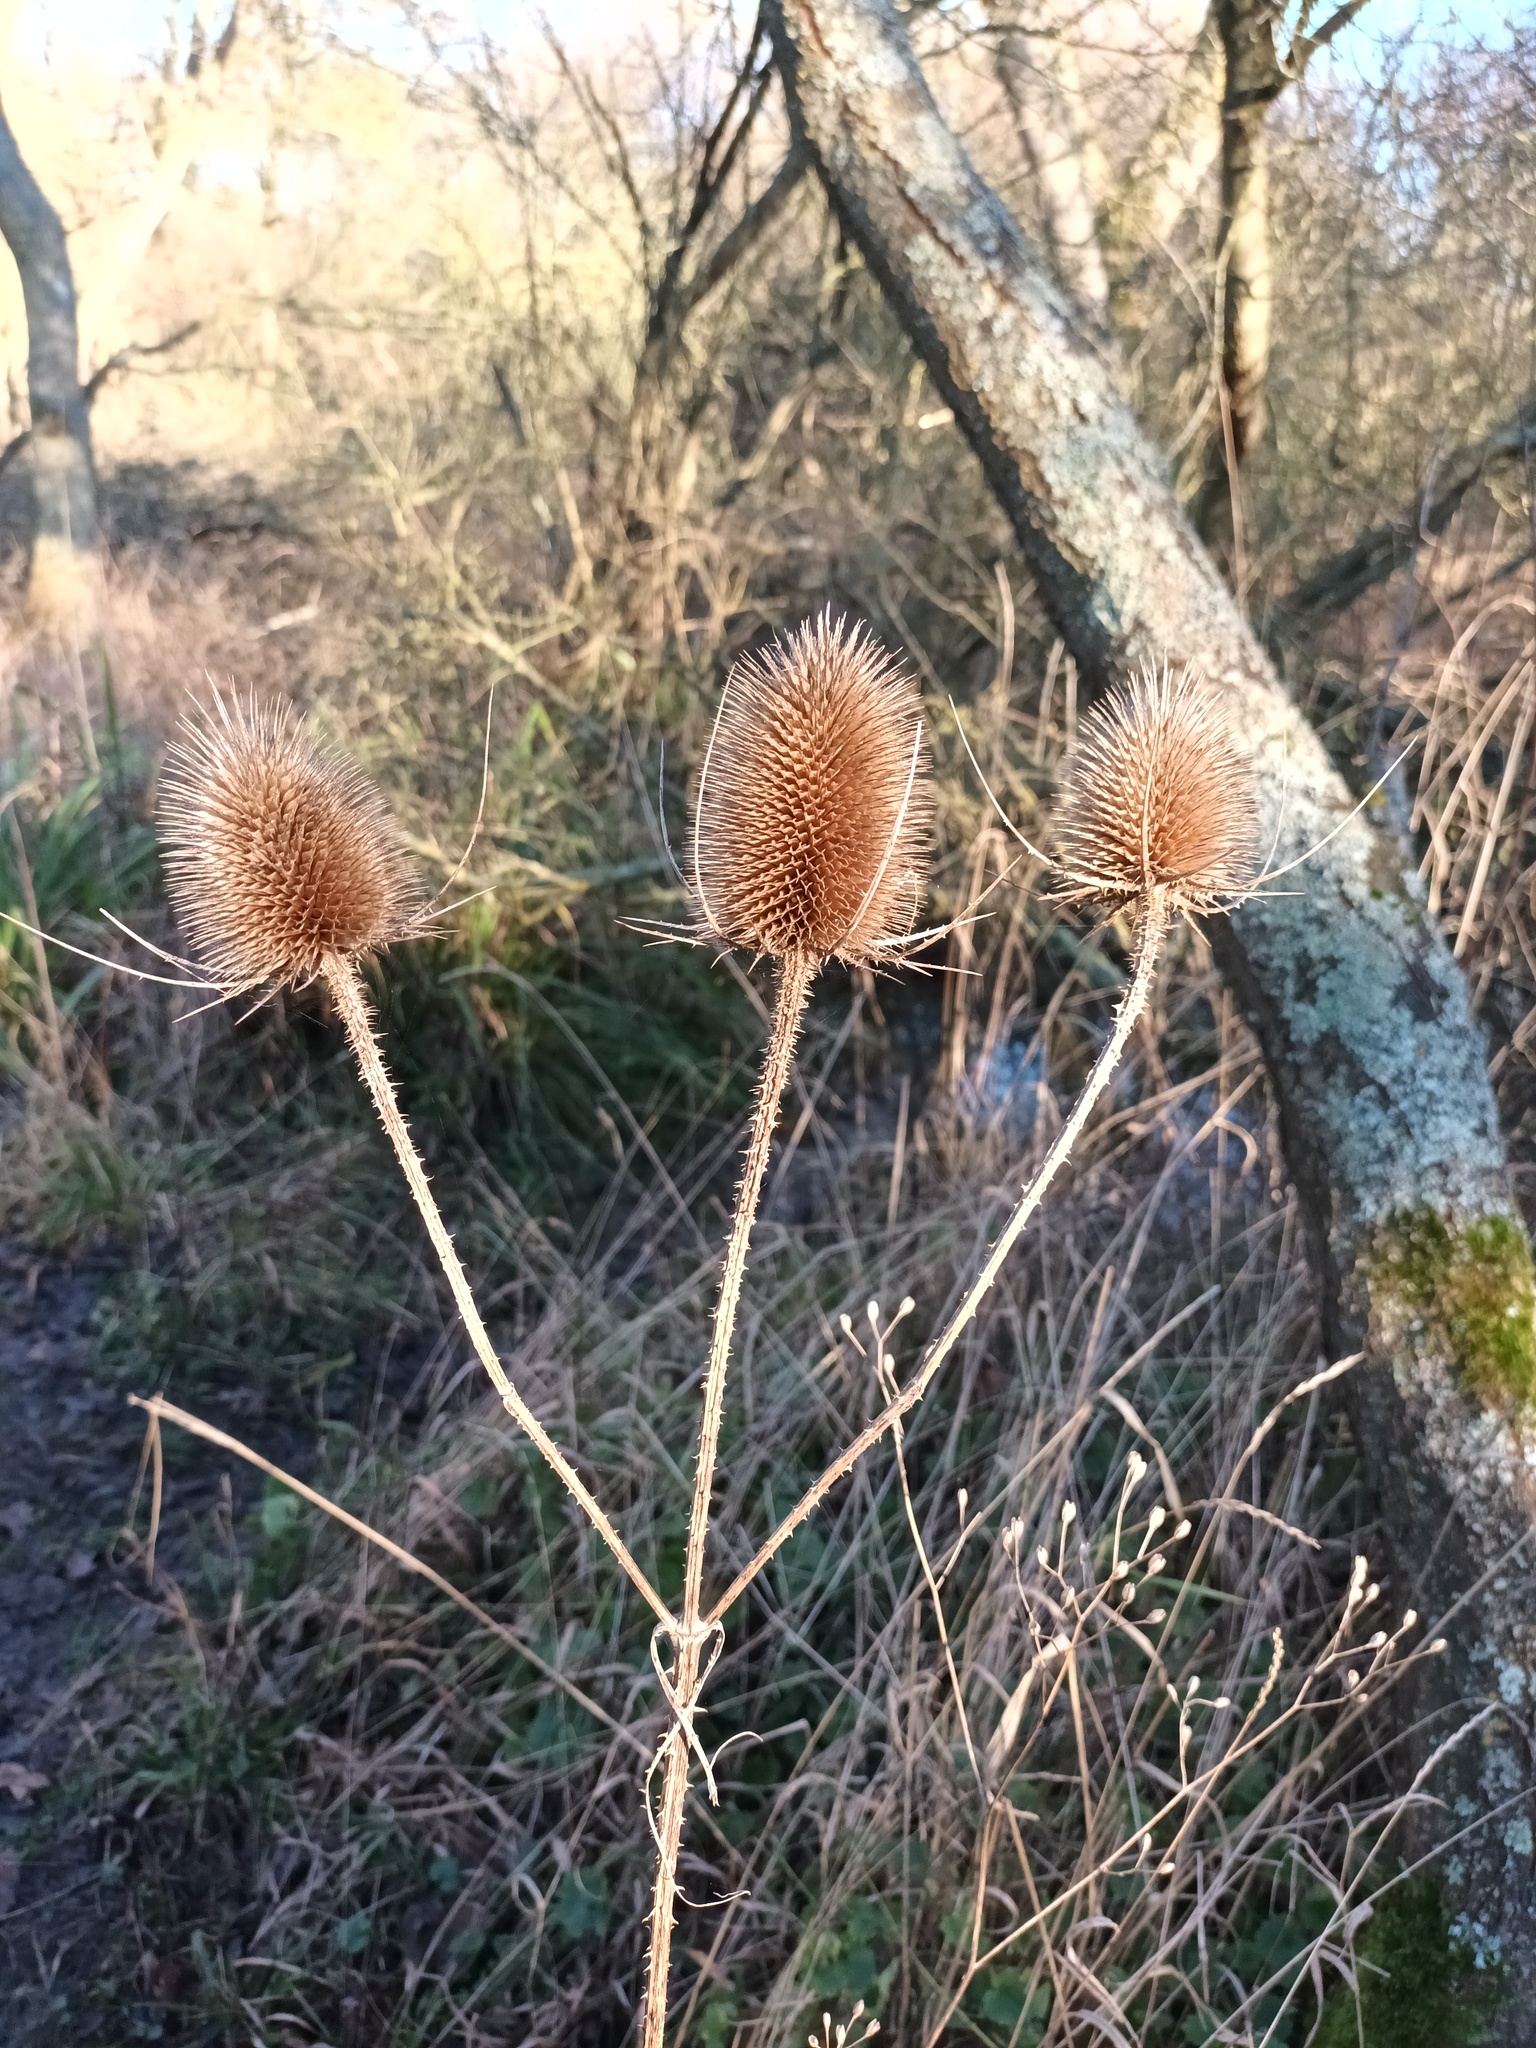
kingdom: Plantae
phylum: Tracheophyta
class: Magnoliopsida
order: Dipsacales
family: Caprifoliaceae
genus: Dipsacus
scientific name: Dipsacus fullonum
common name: Teasel
